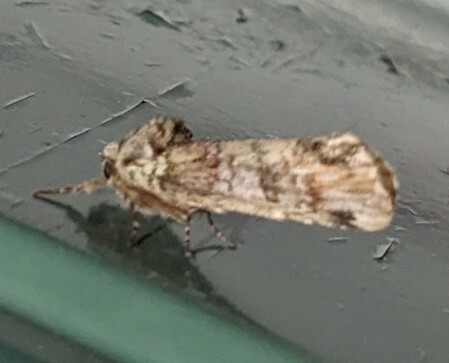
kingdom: Animalia
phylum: Arthropoda
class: Insecta
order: Lepidoptera
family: Notodontidae
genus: Schizura
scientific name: Schizura
